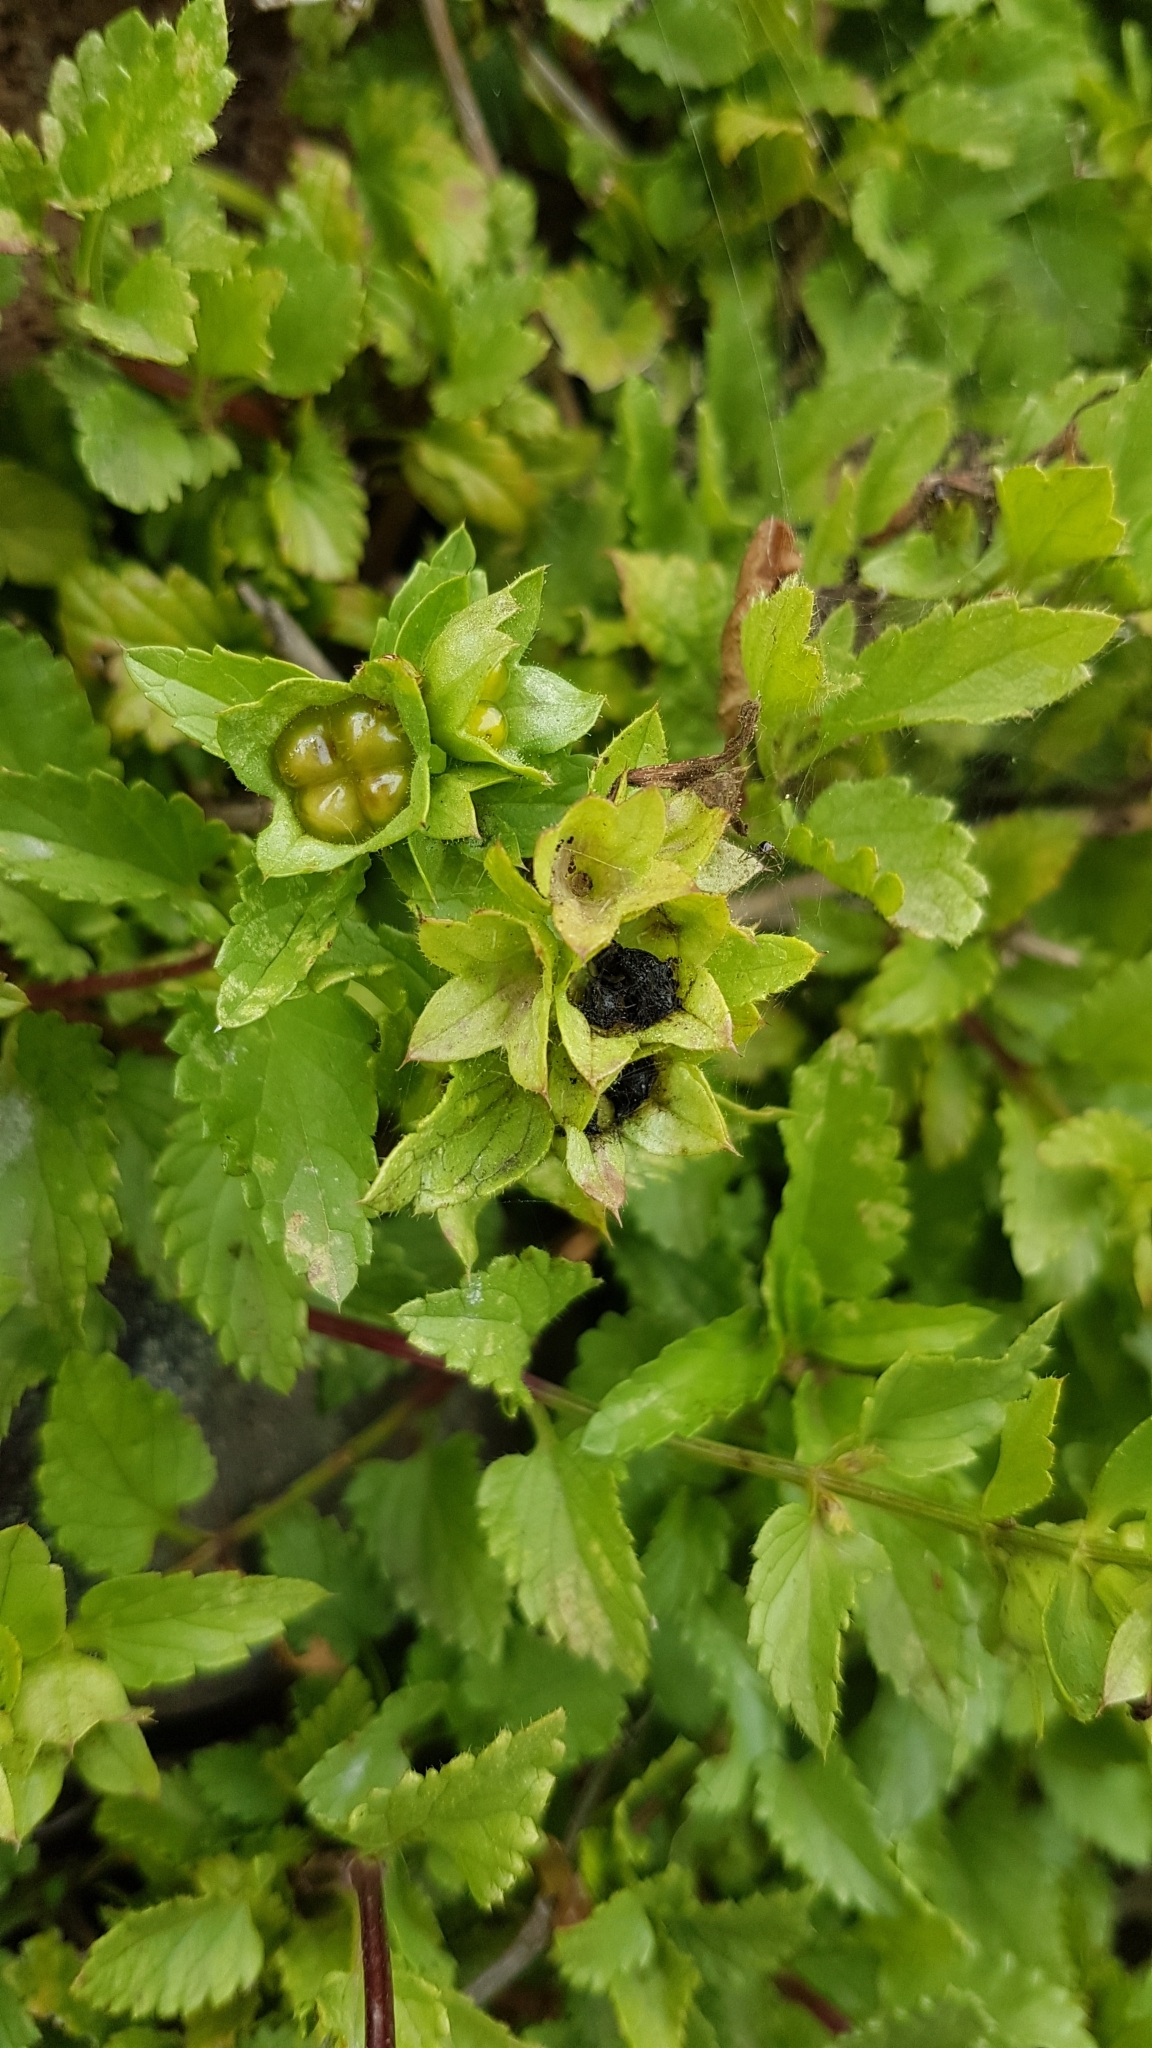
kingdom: Plantae
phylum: Tracheophyta
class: Magnoliopsida
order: Lamiales
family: Lamiaceae
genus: Prasium
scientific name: Prasium majus
